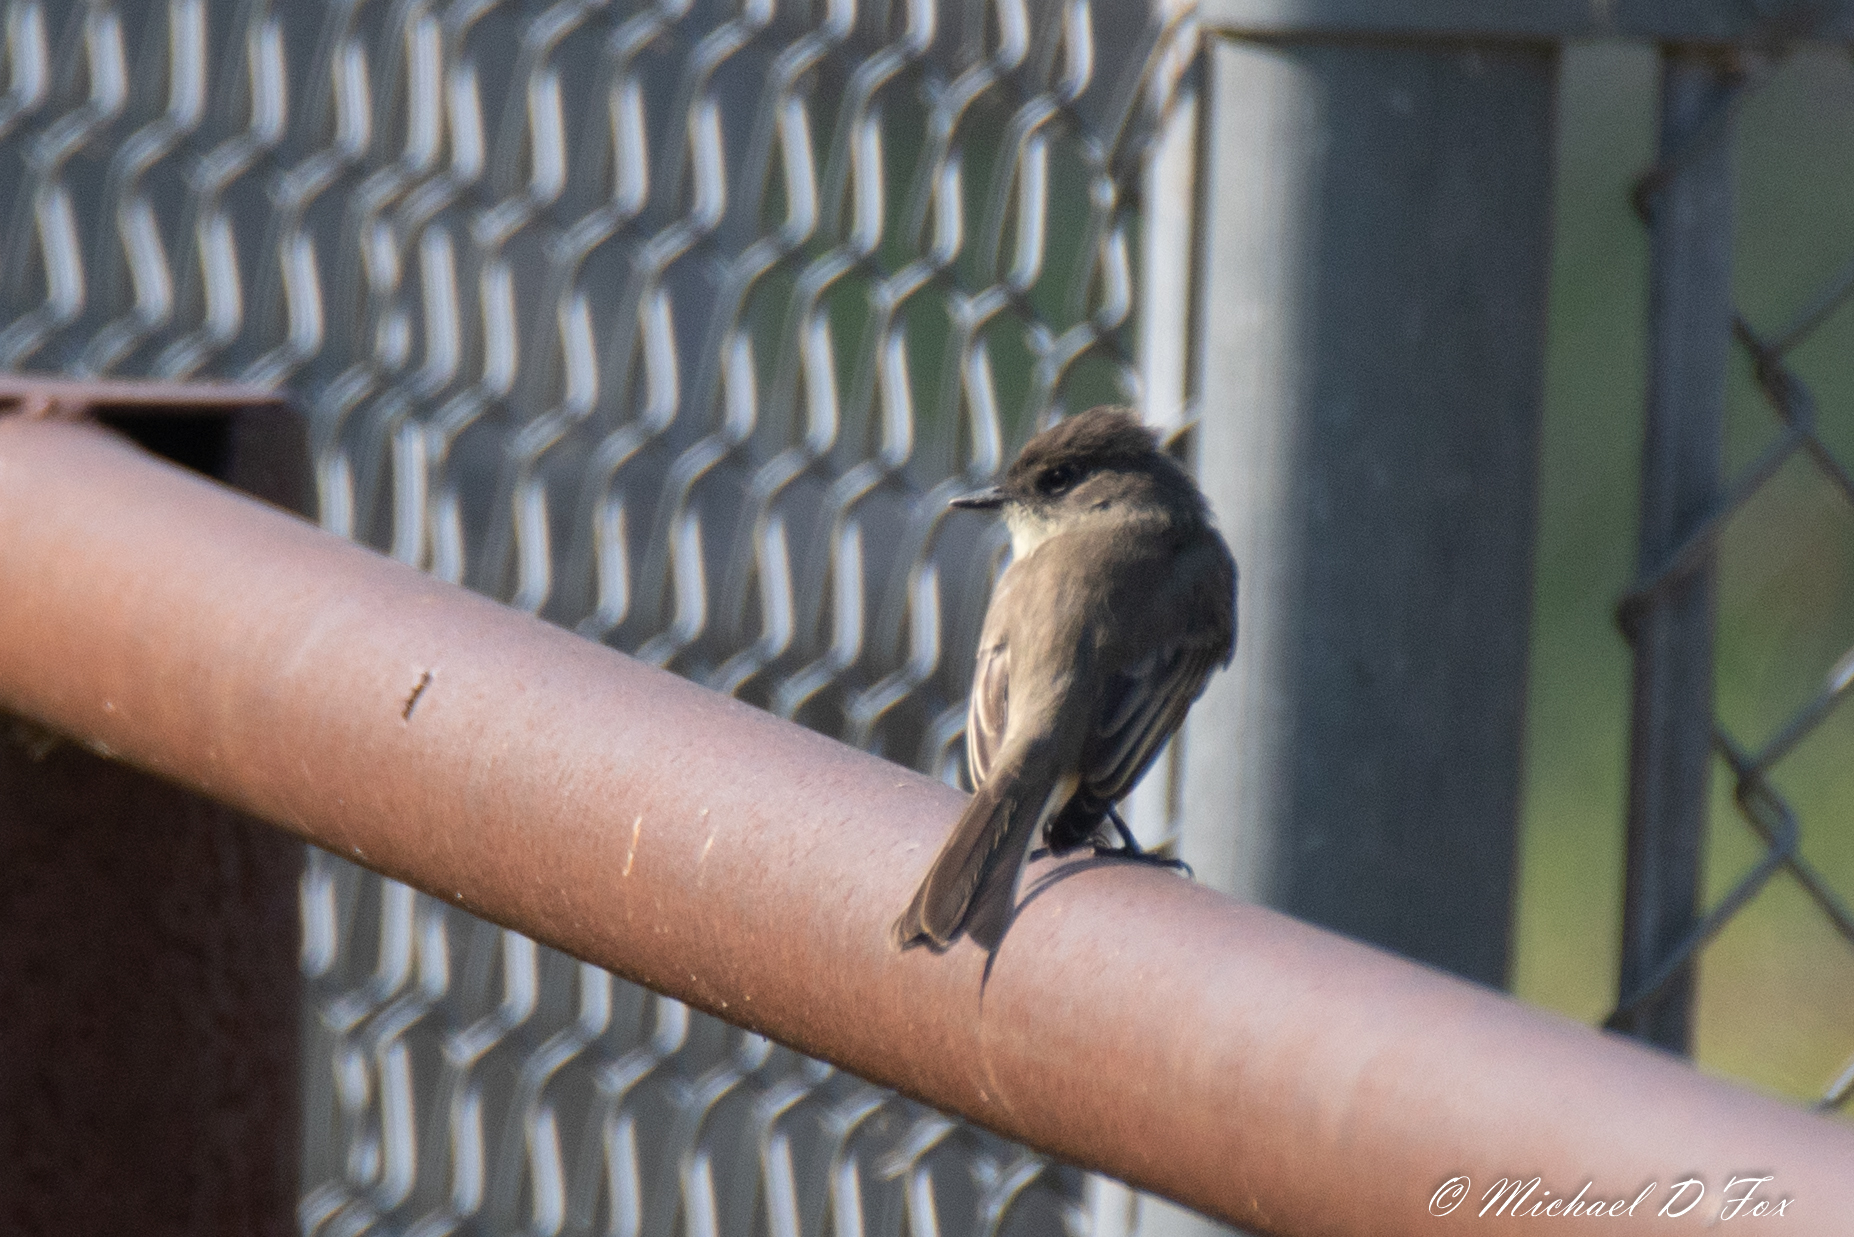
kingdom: Animalia
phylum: Chordata
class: Aves
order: Passeriformes
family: Tyrannidae
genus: Sayornis
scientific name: Sayornis phoebe
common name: Eastern phoebe
